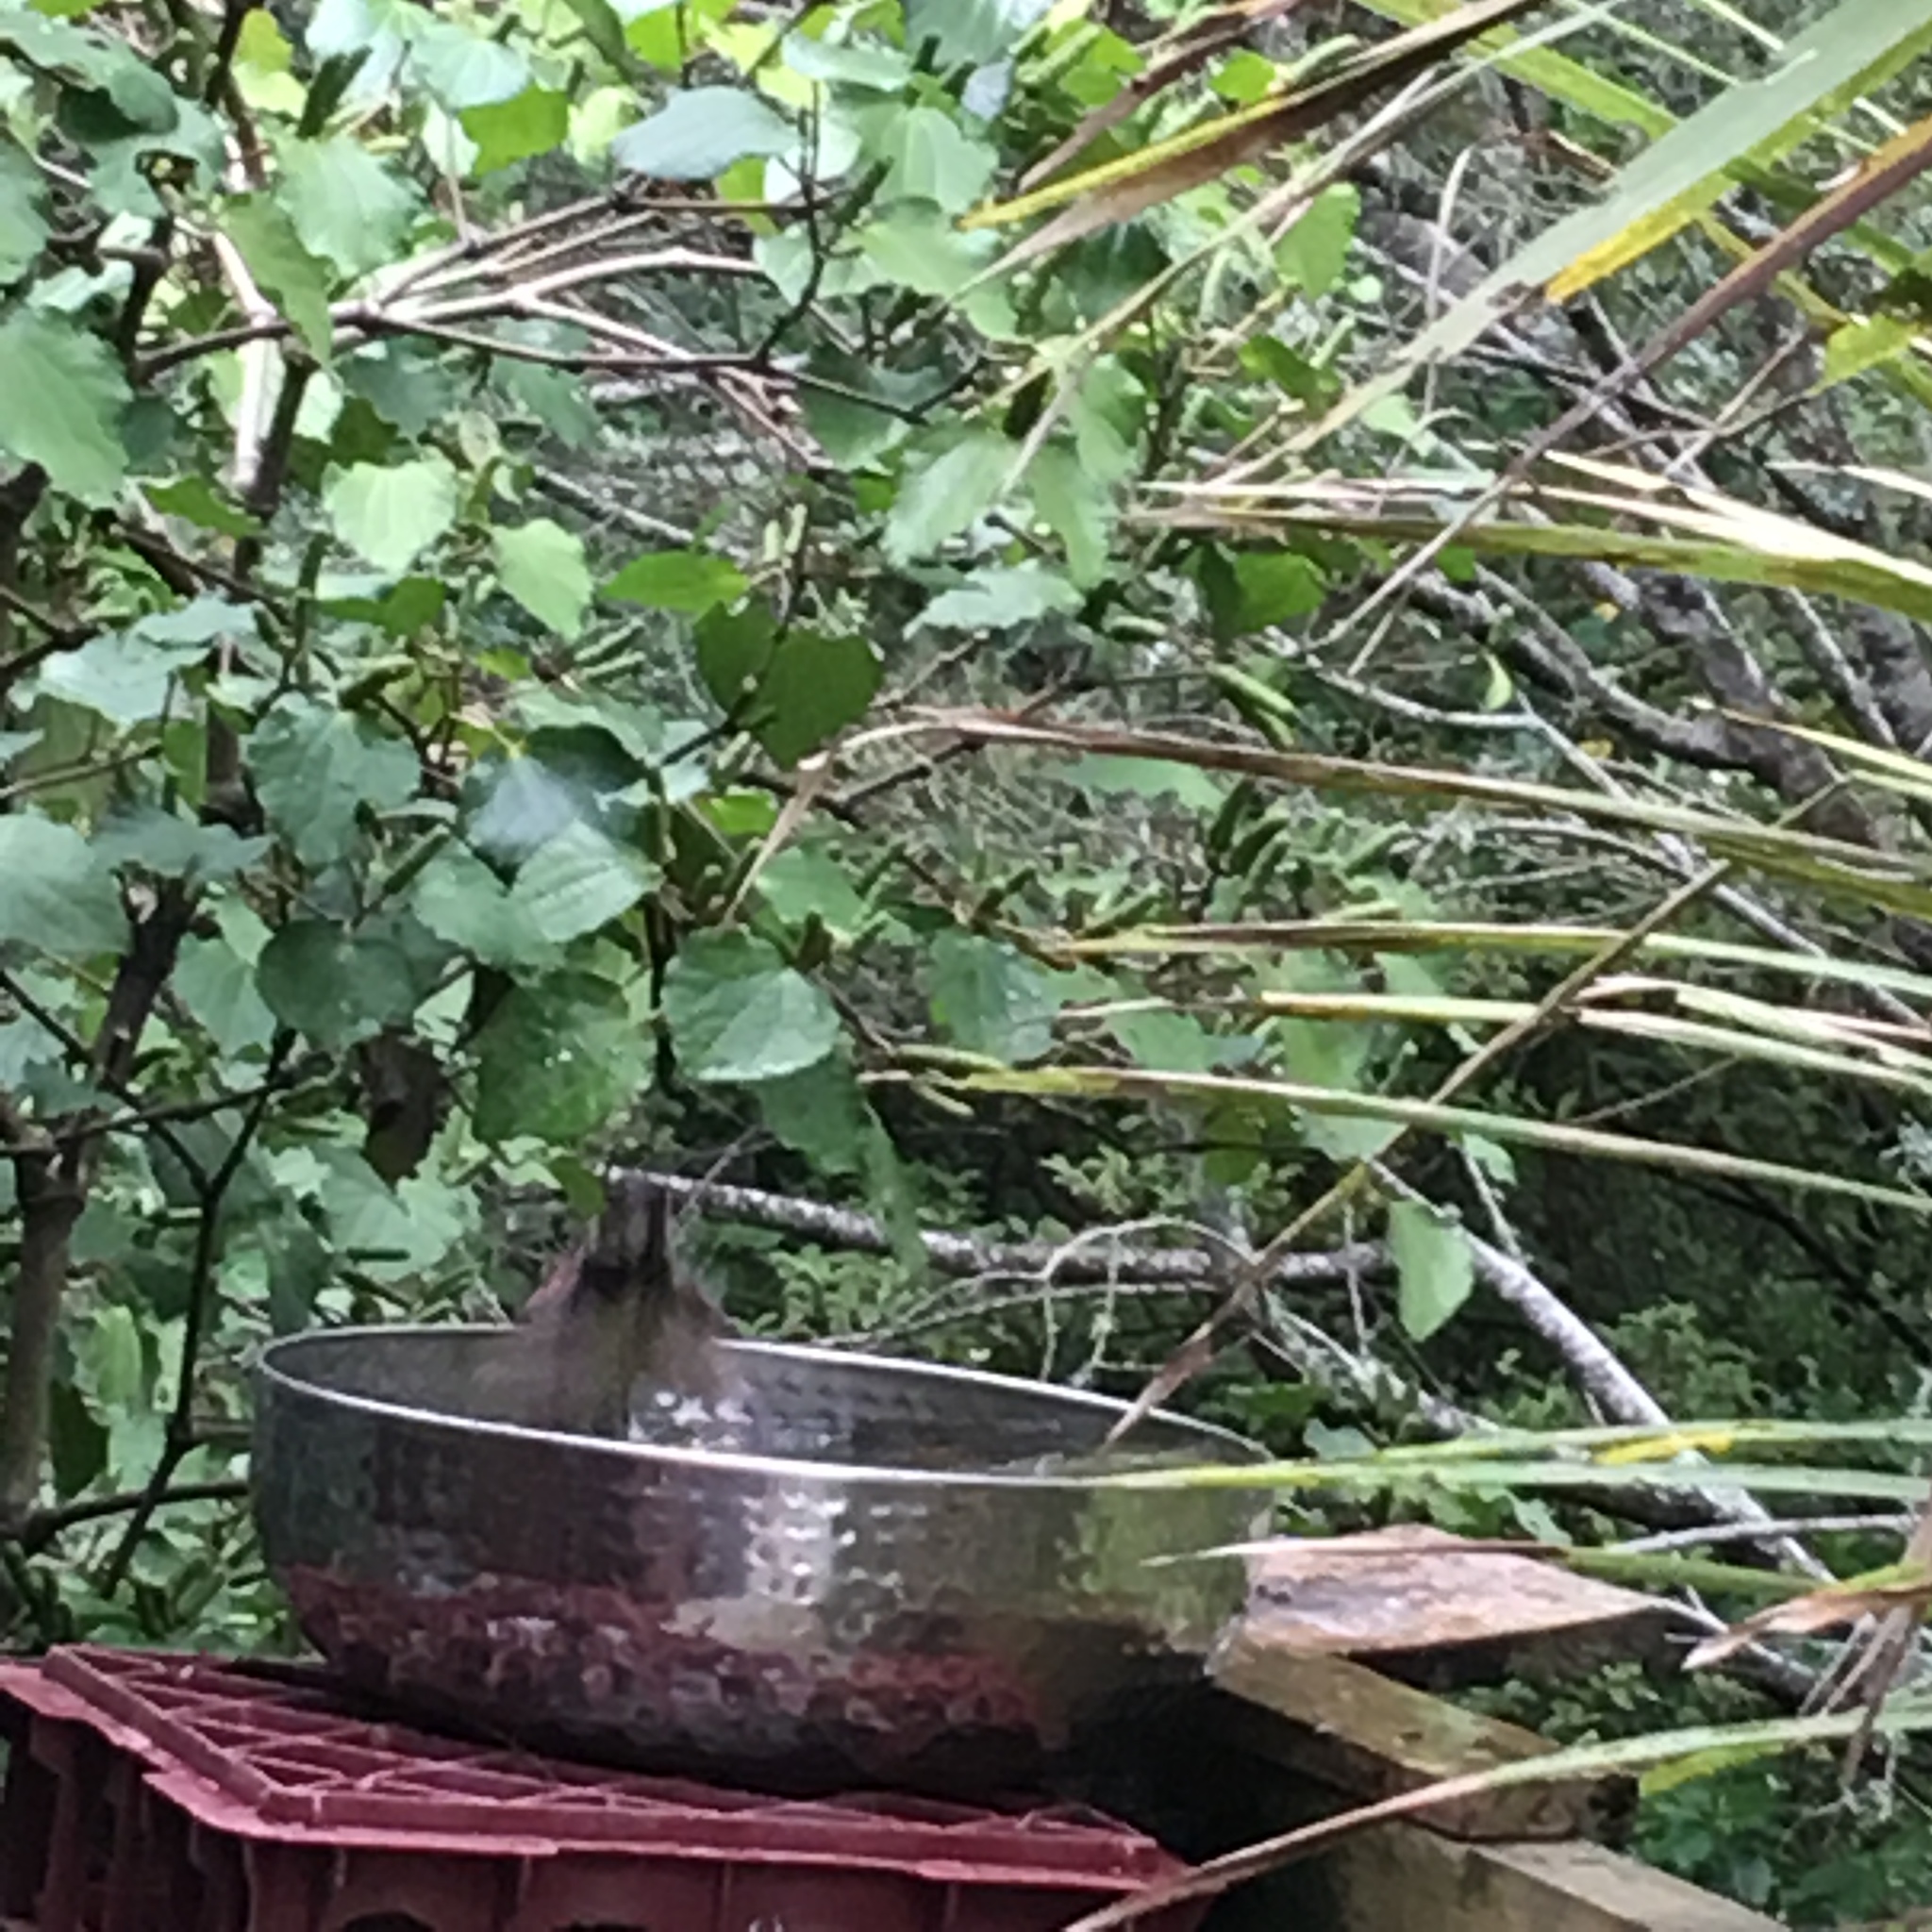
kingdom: Animalia
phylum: Chordata
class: Aves
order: Passeriformes
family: Passeridae
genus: Passer
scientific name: Passer domesticus
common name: House sparrow
